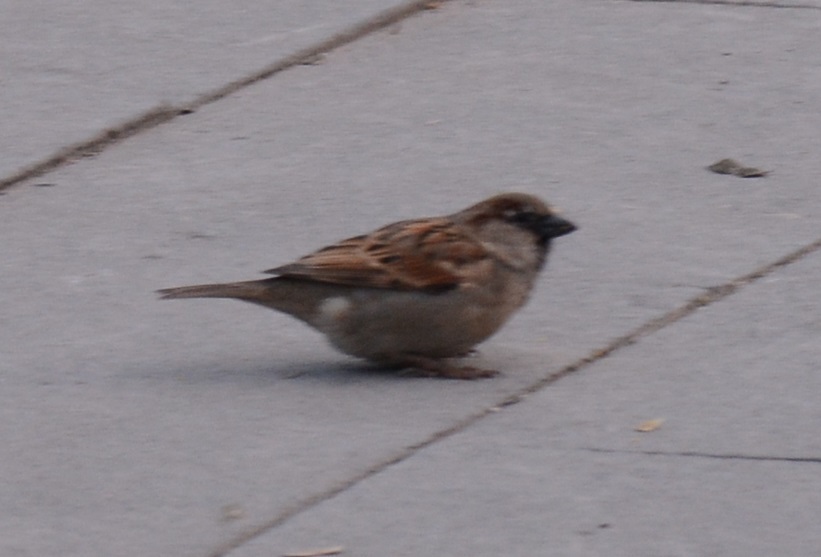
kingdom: Animalia
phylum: Chordata
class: Aves
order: Passeriformes
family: Passeridae
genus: Passer
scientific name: Passer domesticus
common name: House sparrow
